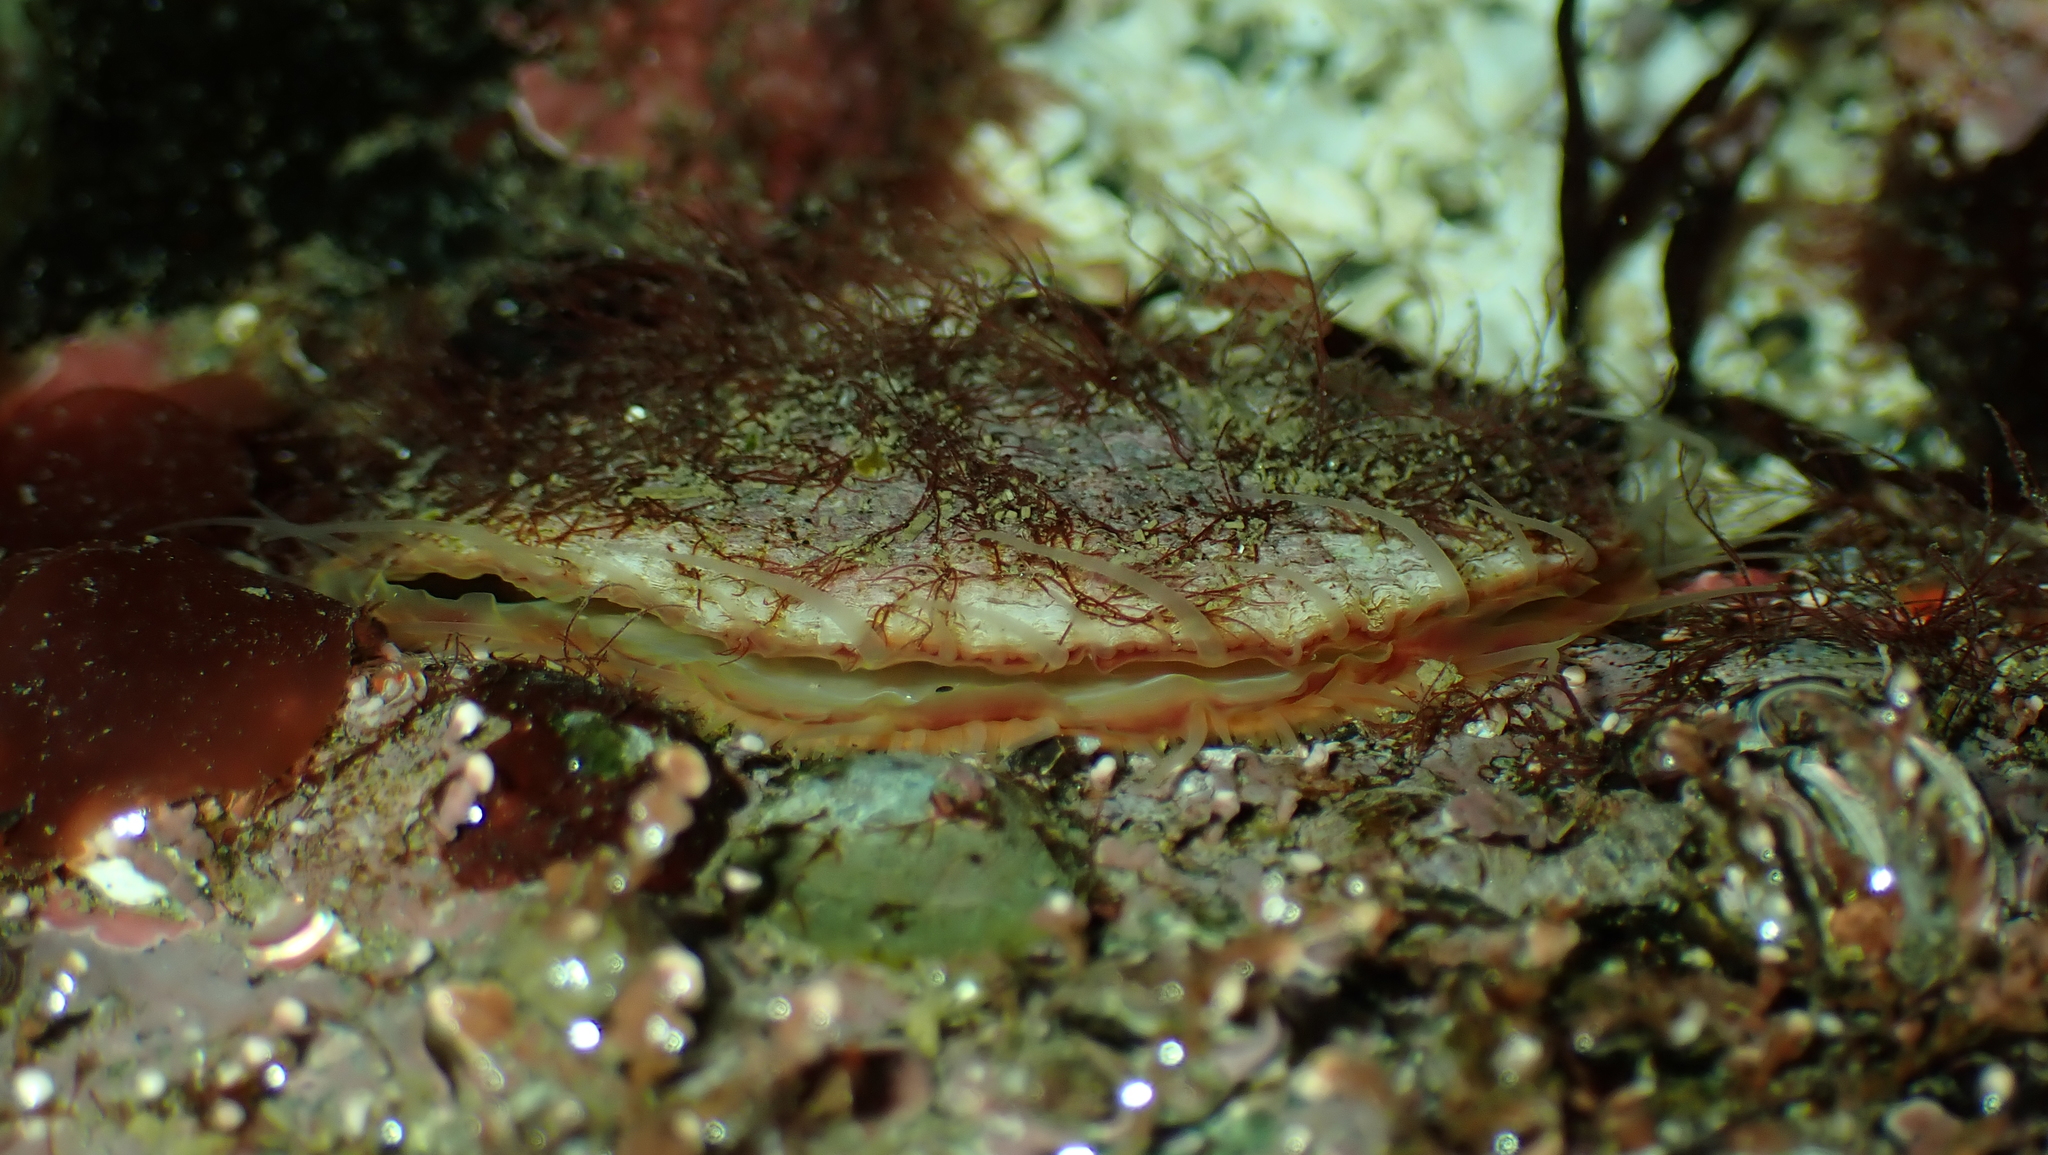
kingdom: Animalia
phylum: Mollusca
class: Bivalvia
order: Pectinida
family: Anomiidae
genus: Pododesmus
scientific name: Pododesmus macrochisma
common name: Alaska jingle
